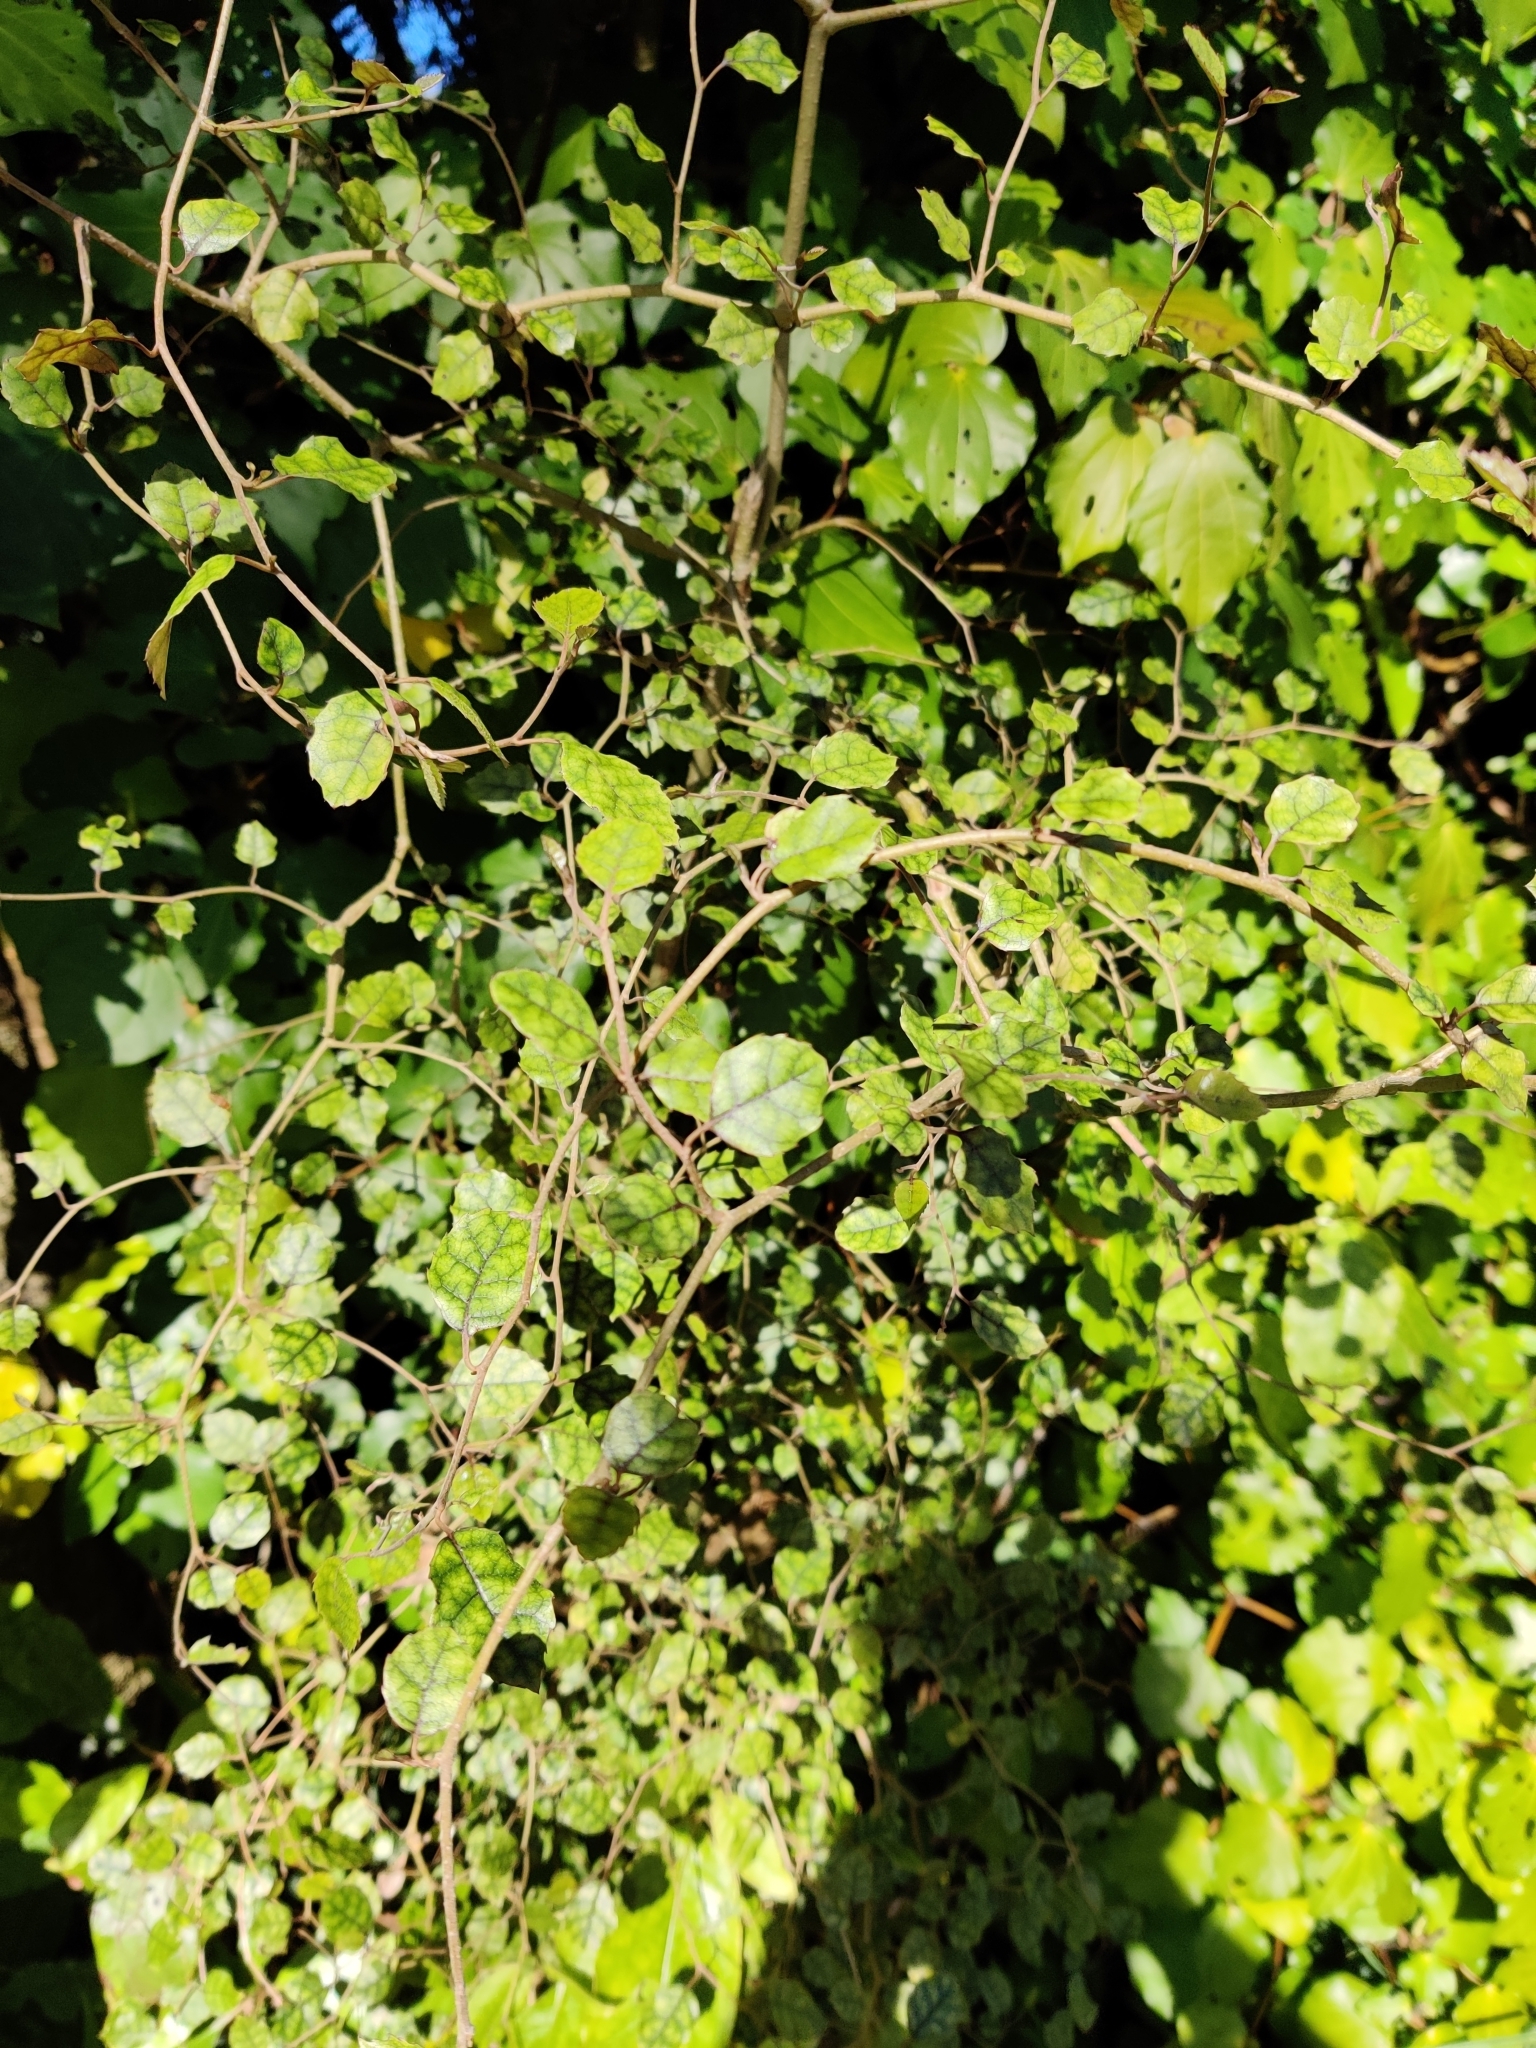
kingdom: Plantae
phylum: Tracheophyta
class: Magnoliopsida
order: Asterales
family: Rousseaceae
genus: Carpodetus
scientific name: Carpodetus serratus
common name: White mapau
